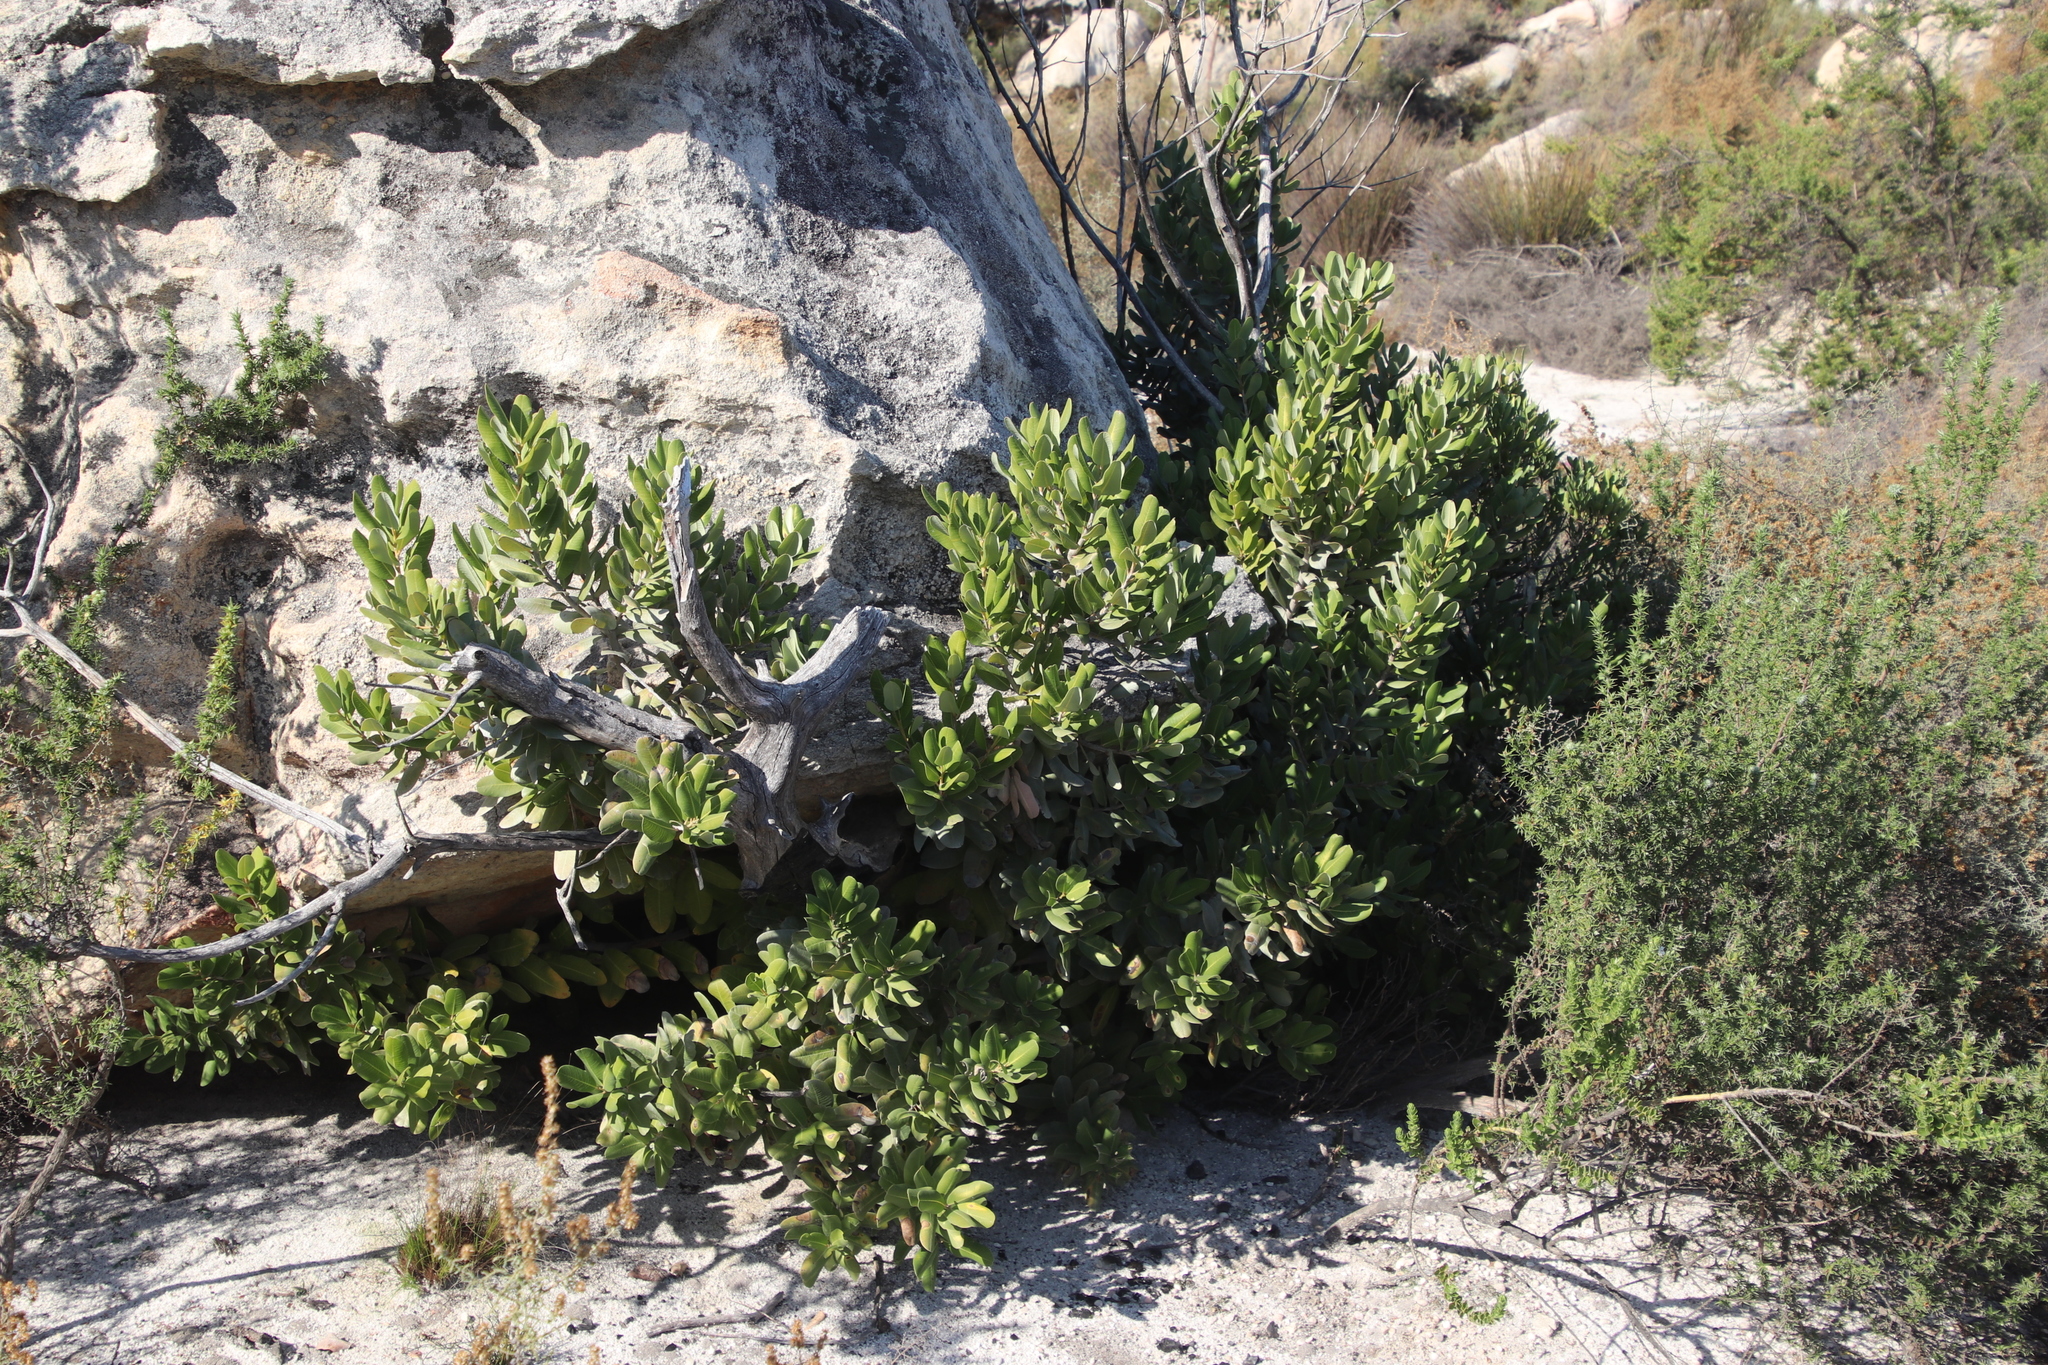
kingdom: Plantae
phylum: Tracheophyta
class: Magnoliopsida
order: Sapindales
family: Anacardiaceae
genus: Heeria
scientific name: Heeria argentea
